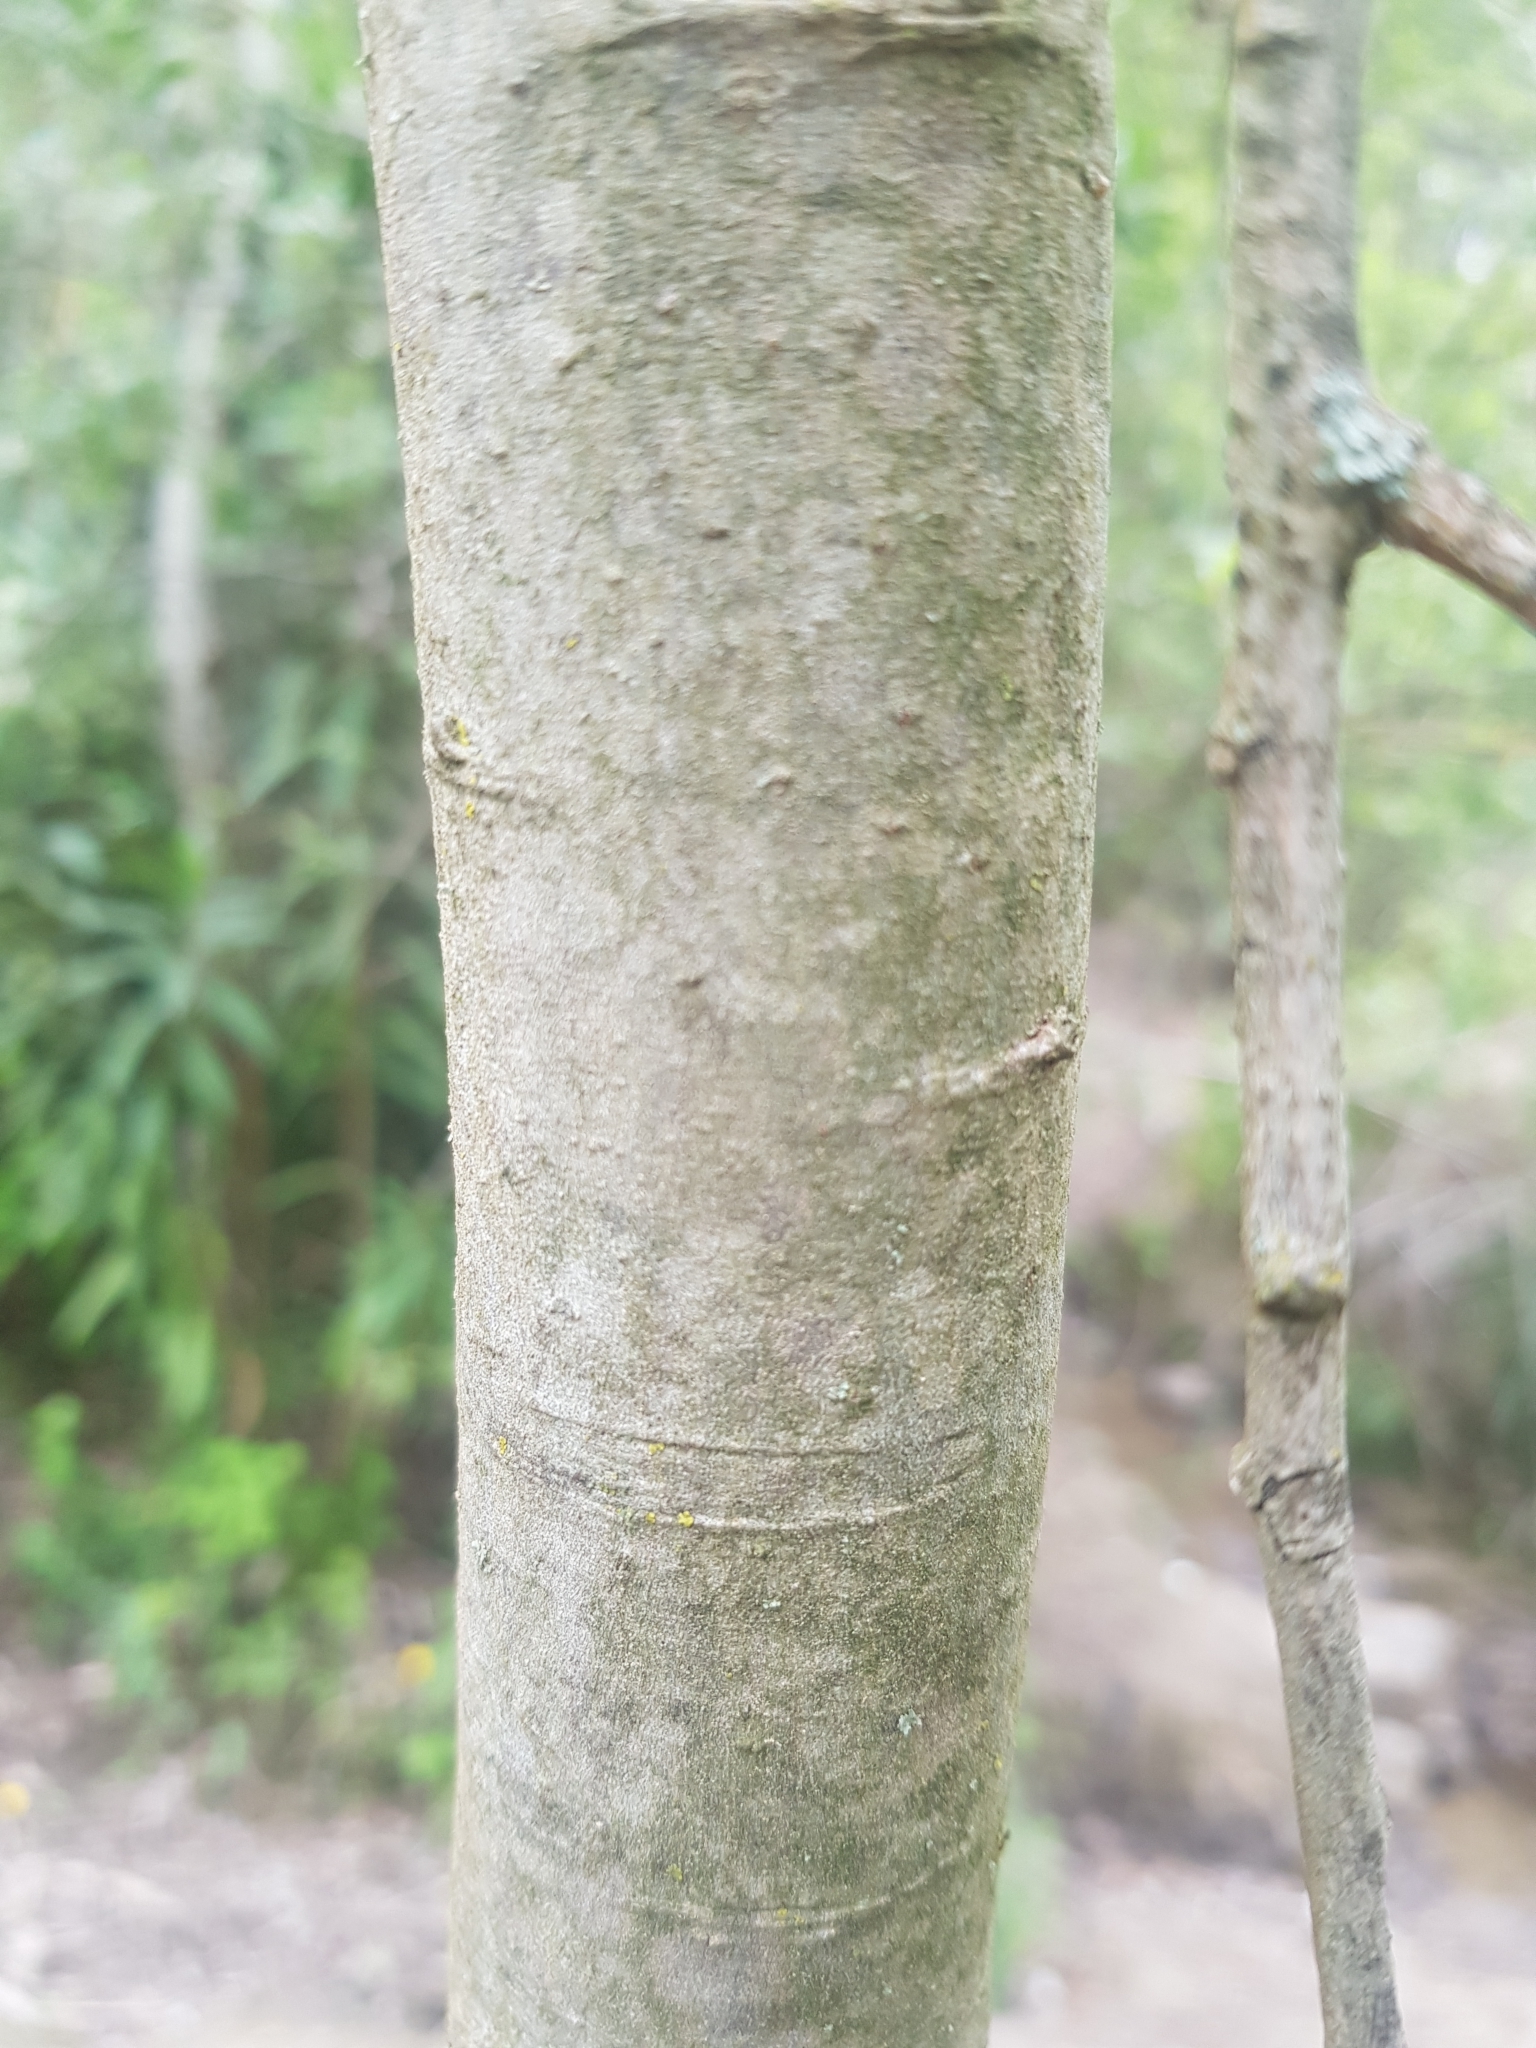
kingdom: Plantae
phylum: Tracheophyta
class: Magnoliopsida
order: Malpighiales
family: Salicaceae
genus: Salix
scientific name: Salix pedicellata
